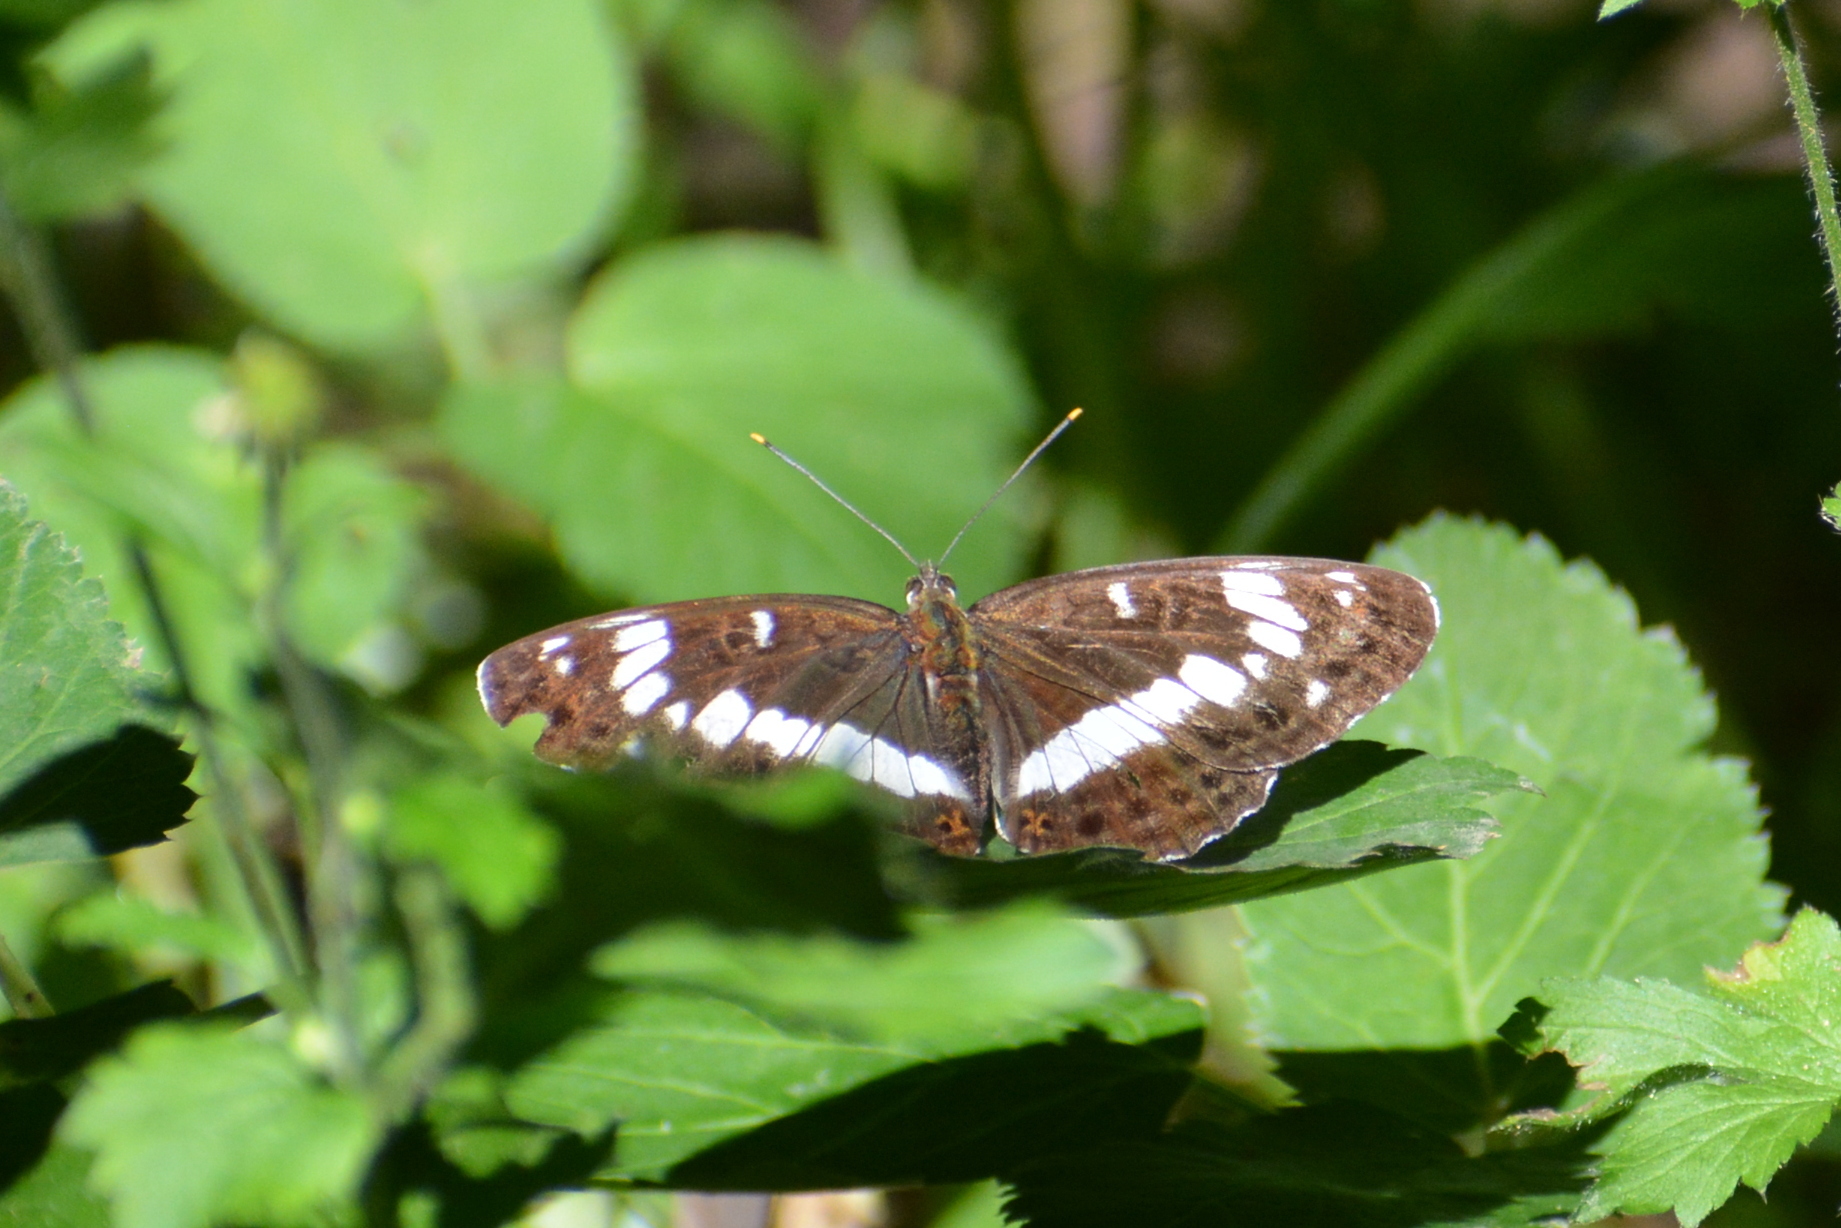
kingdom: Animalia
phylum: Arthropoda
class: Insecta
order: Lepidoptera
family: Nymphalidae
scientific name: Nymphalidae
